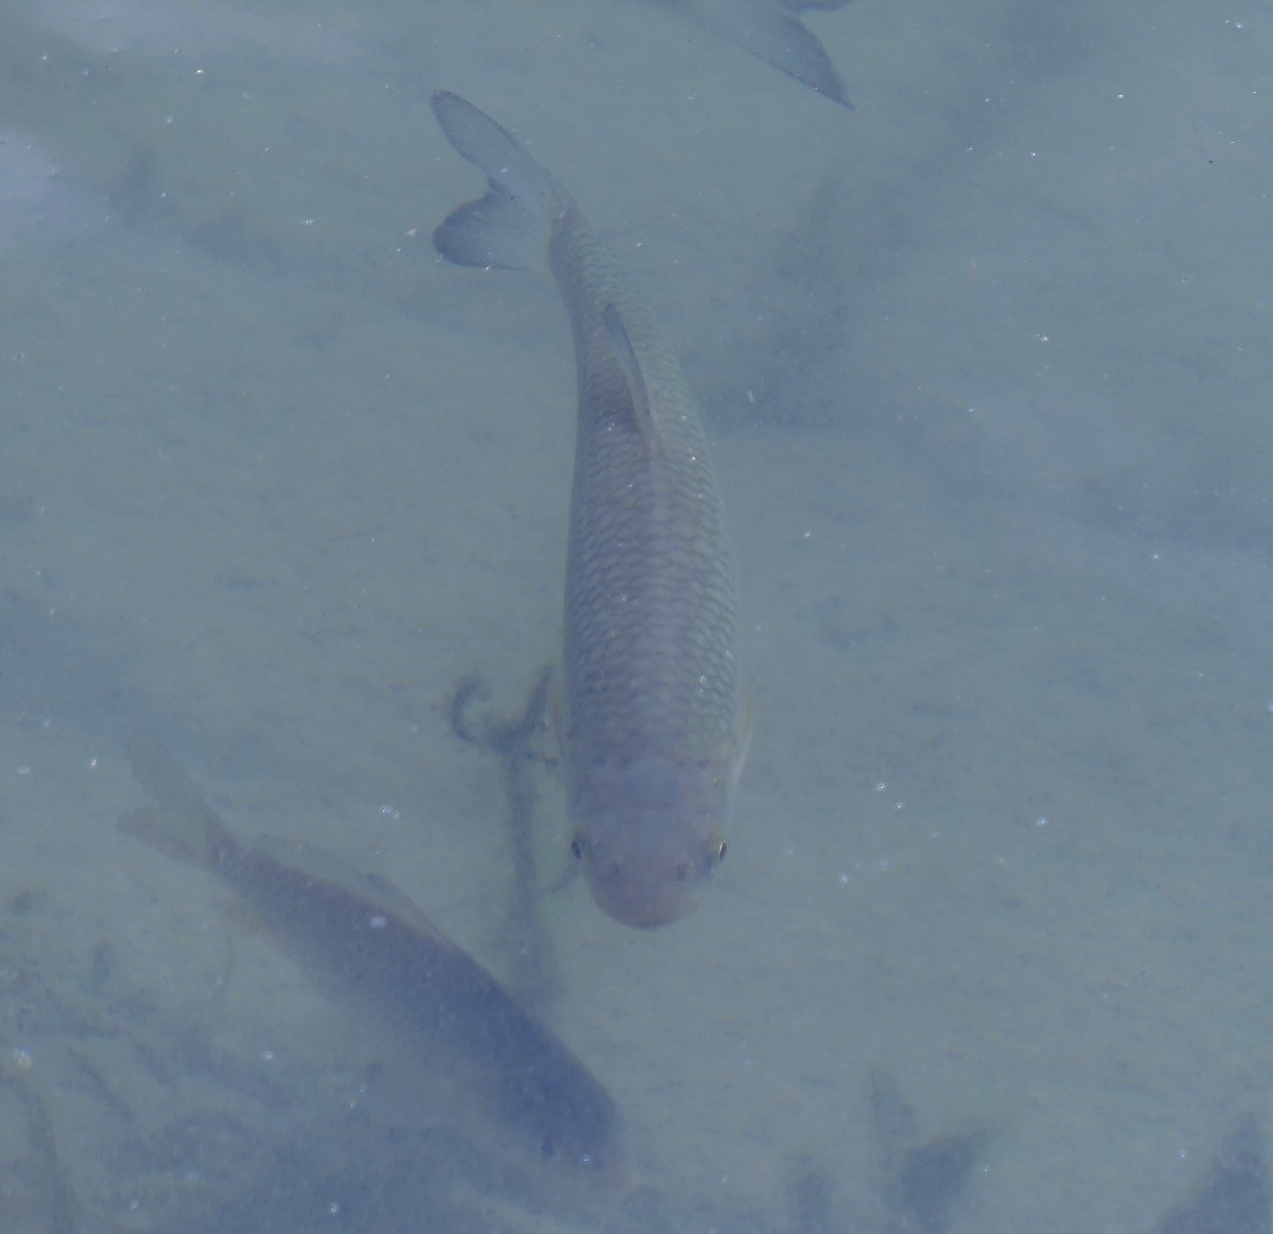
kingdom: Animalia
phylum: Chordata
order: Cypriniformes
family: Cyprinidae
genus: Squalius
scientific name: Squalius cephalus
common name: Chub
